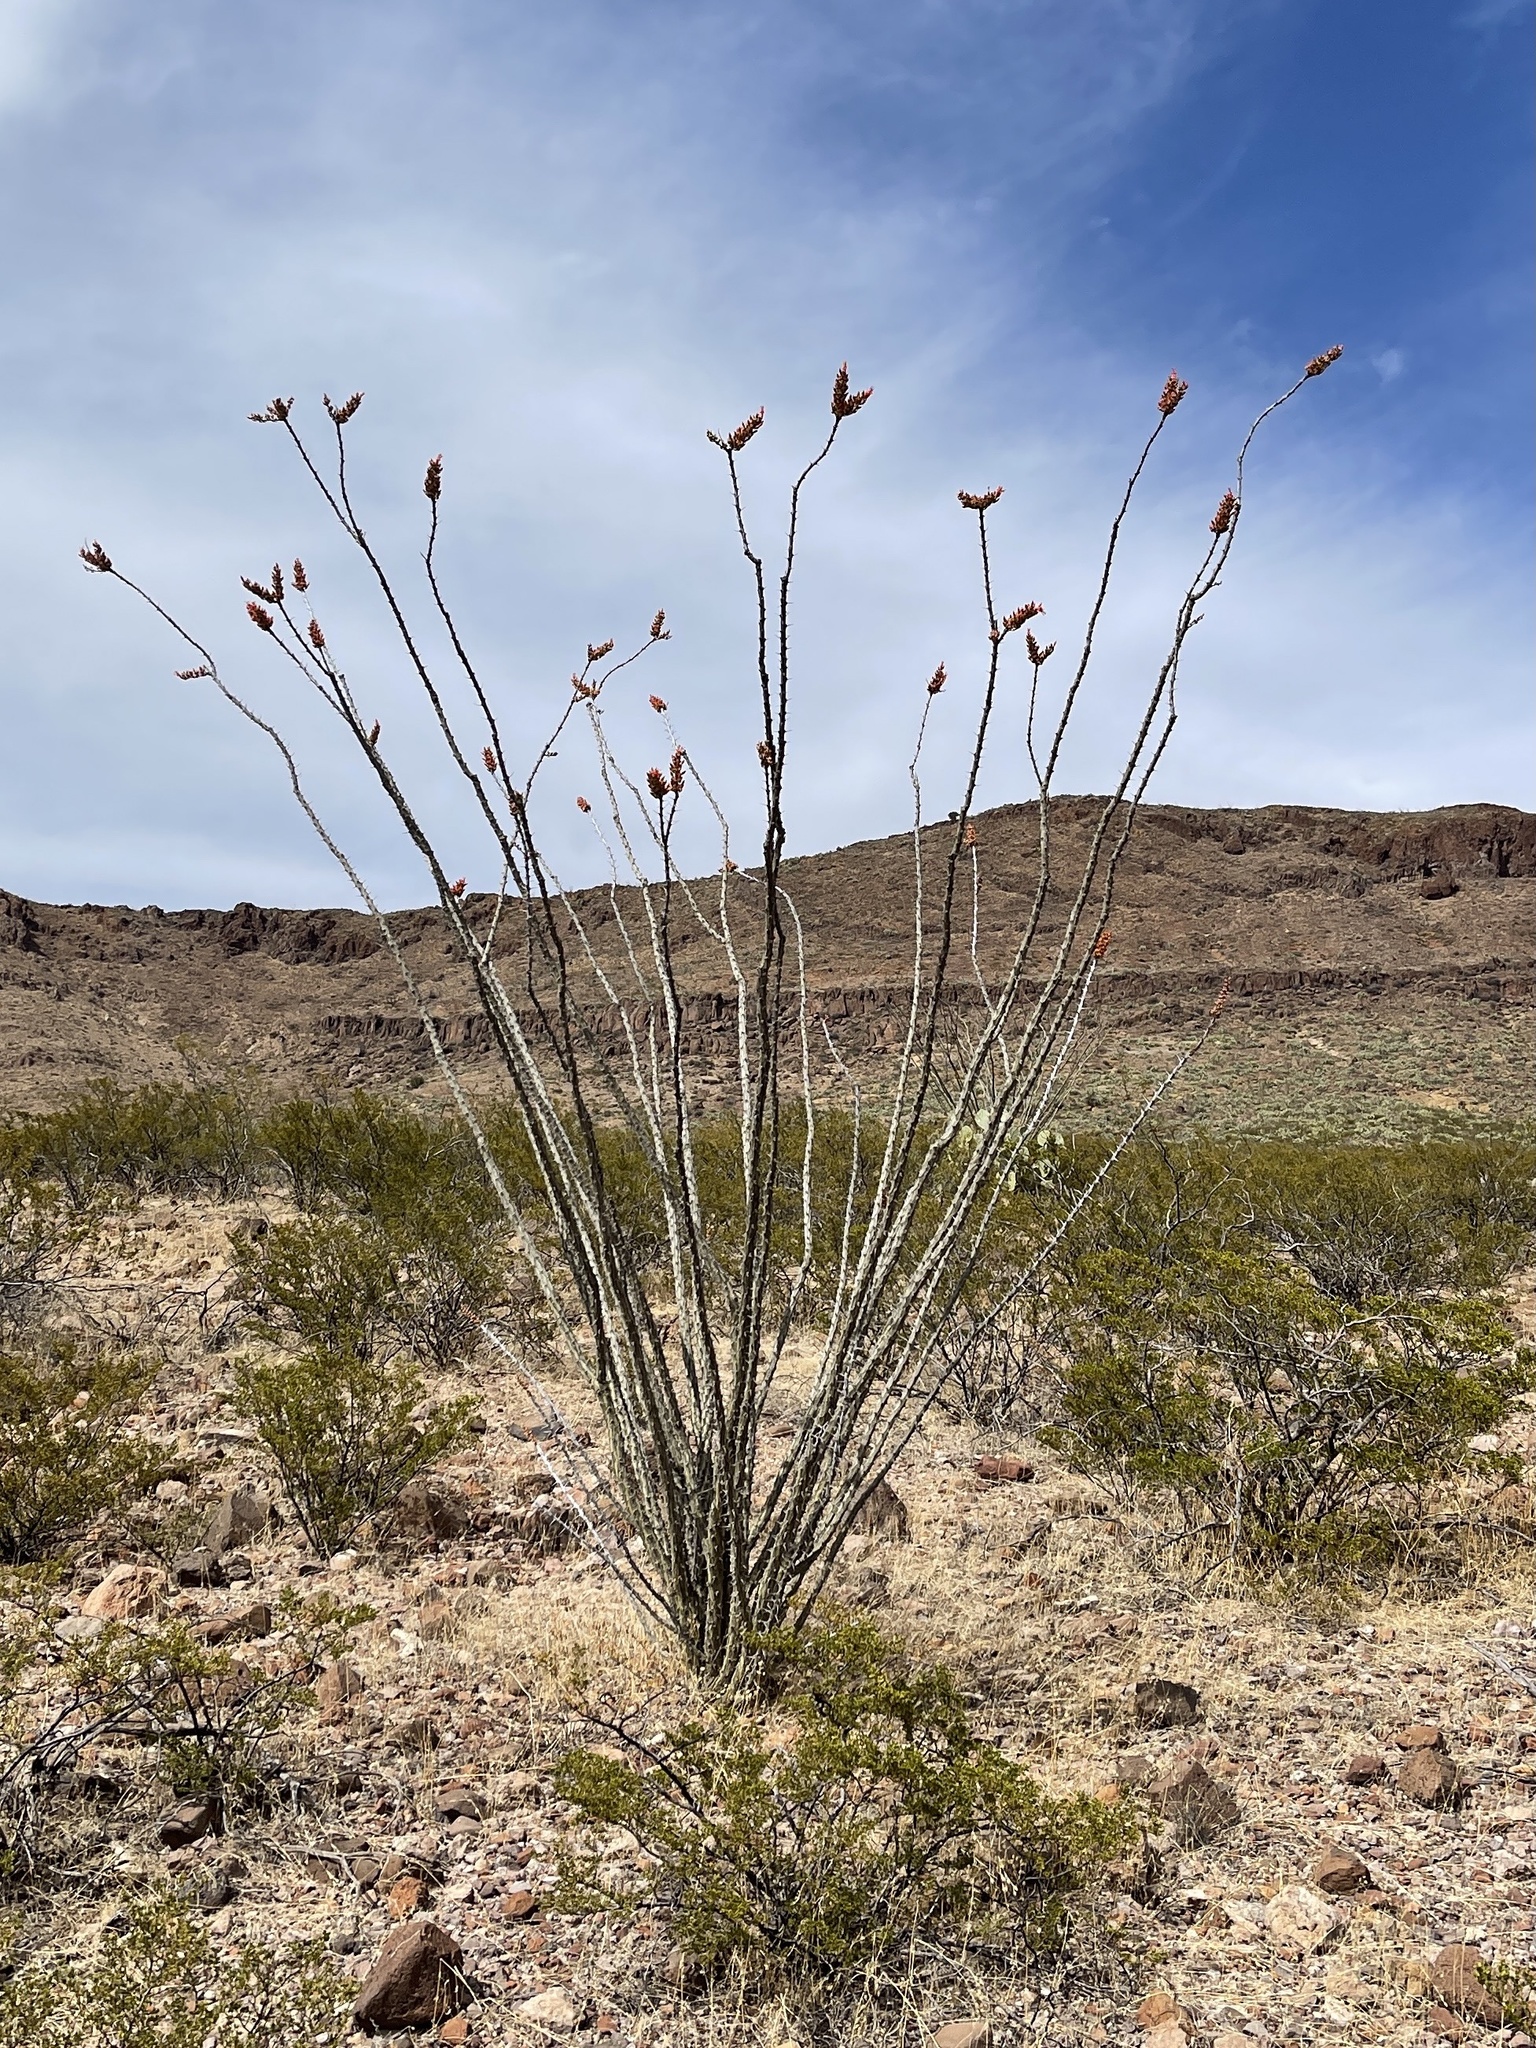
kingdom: Plantae
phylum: Tracheophyta
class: Magnoliopsida
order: Ericales
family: Fouquieriaceae
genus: Fouquieria
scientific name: Fouquieria splendens
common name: Vine-cactus
